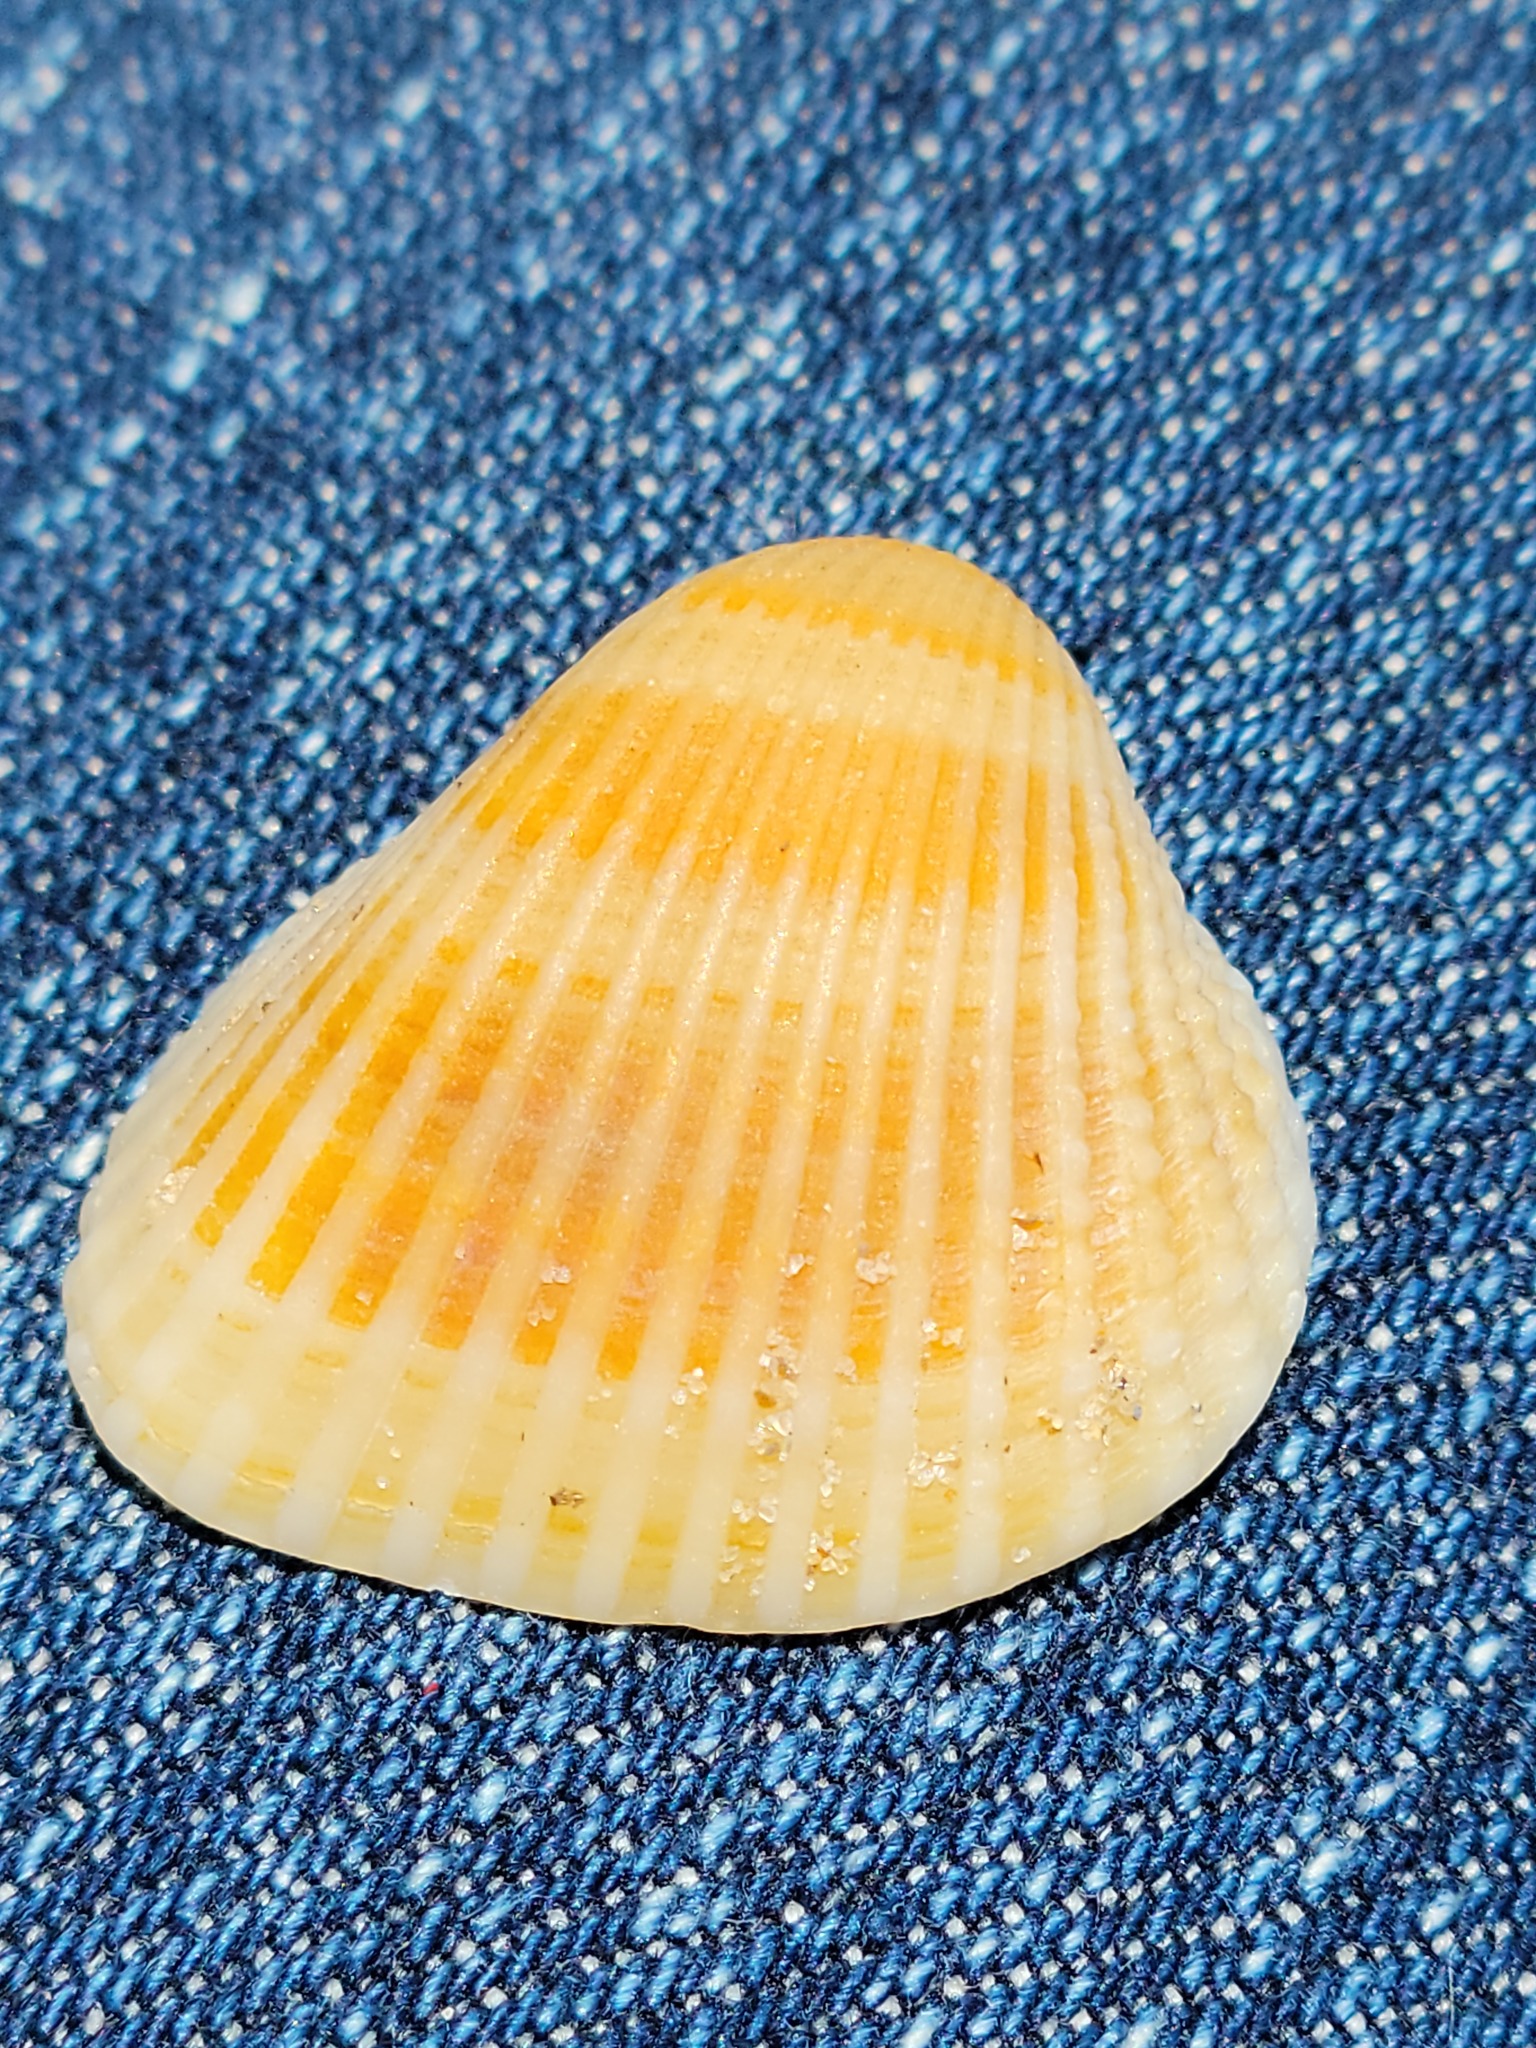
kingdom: Animalia
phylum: Mollusca
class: Bivalvia
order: Arcida
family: Arcidae
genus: Anadara
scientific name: Anadara chemnitzii
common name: Chemnitz's triangular ark
